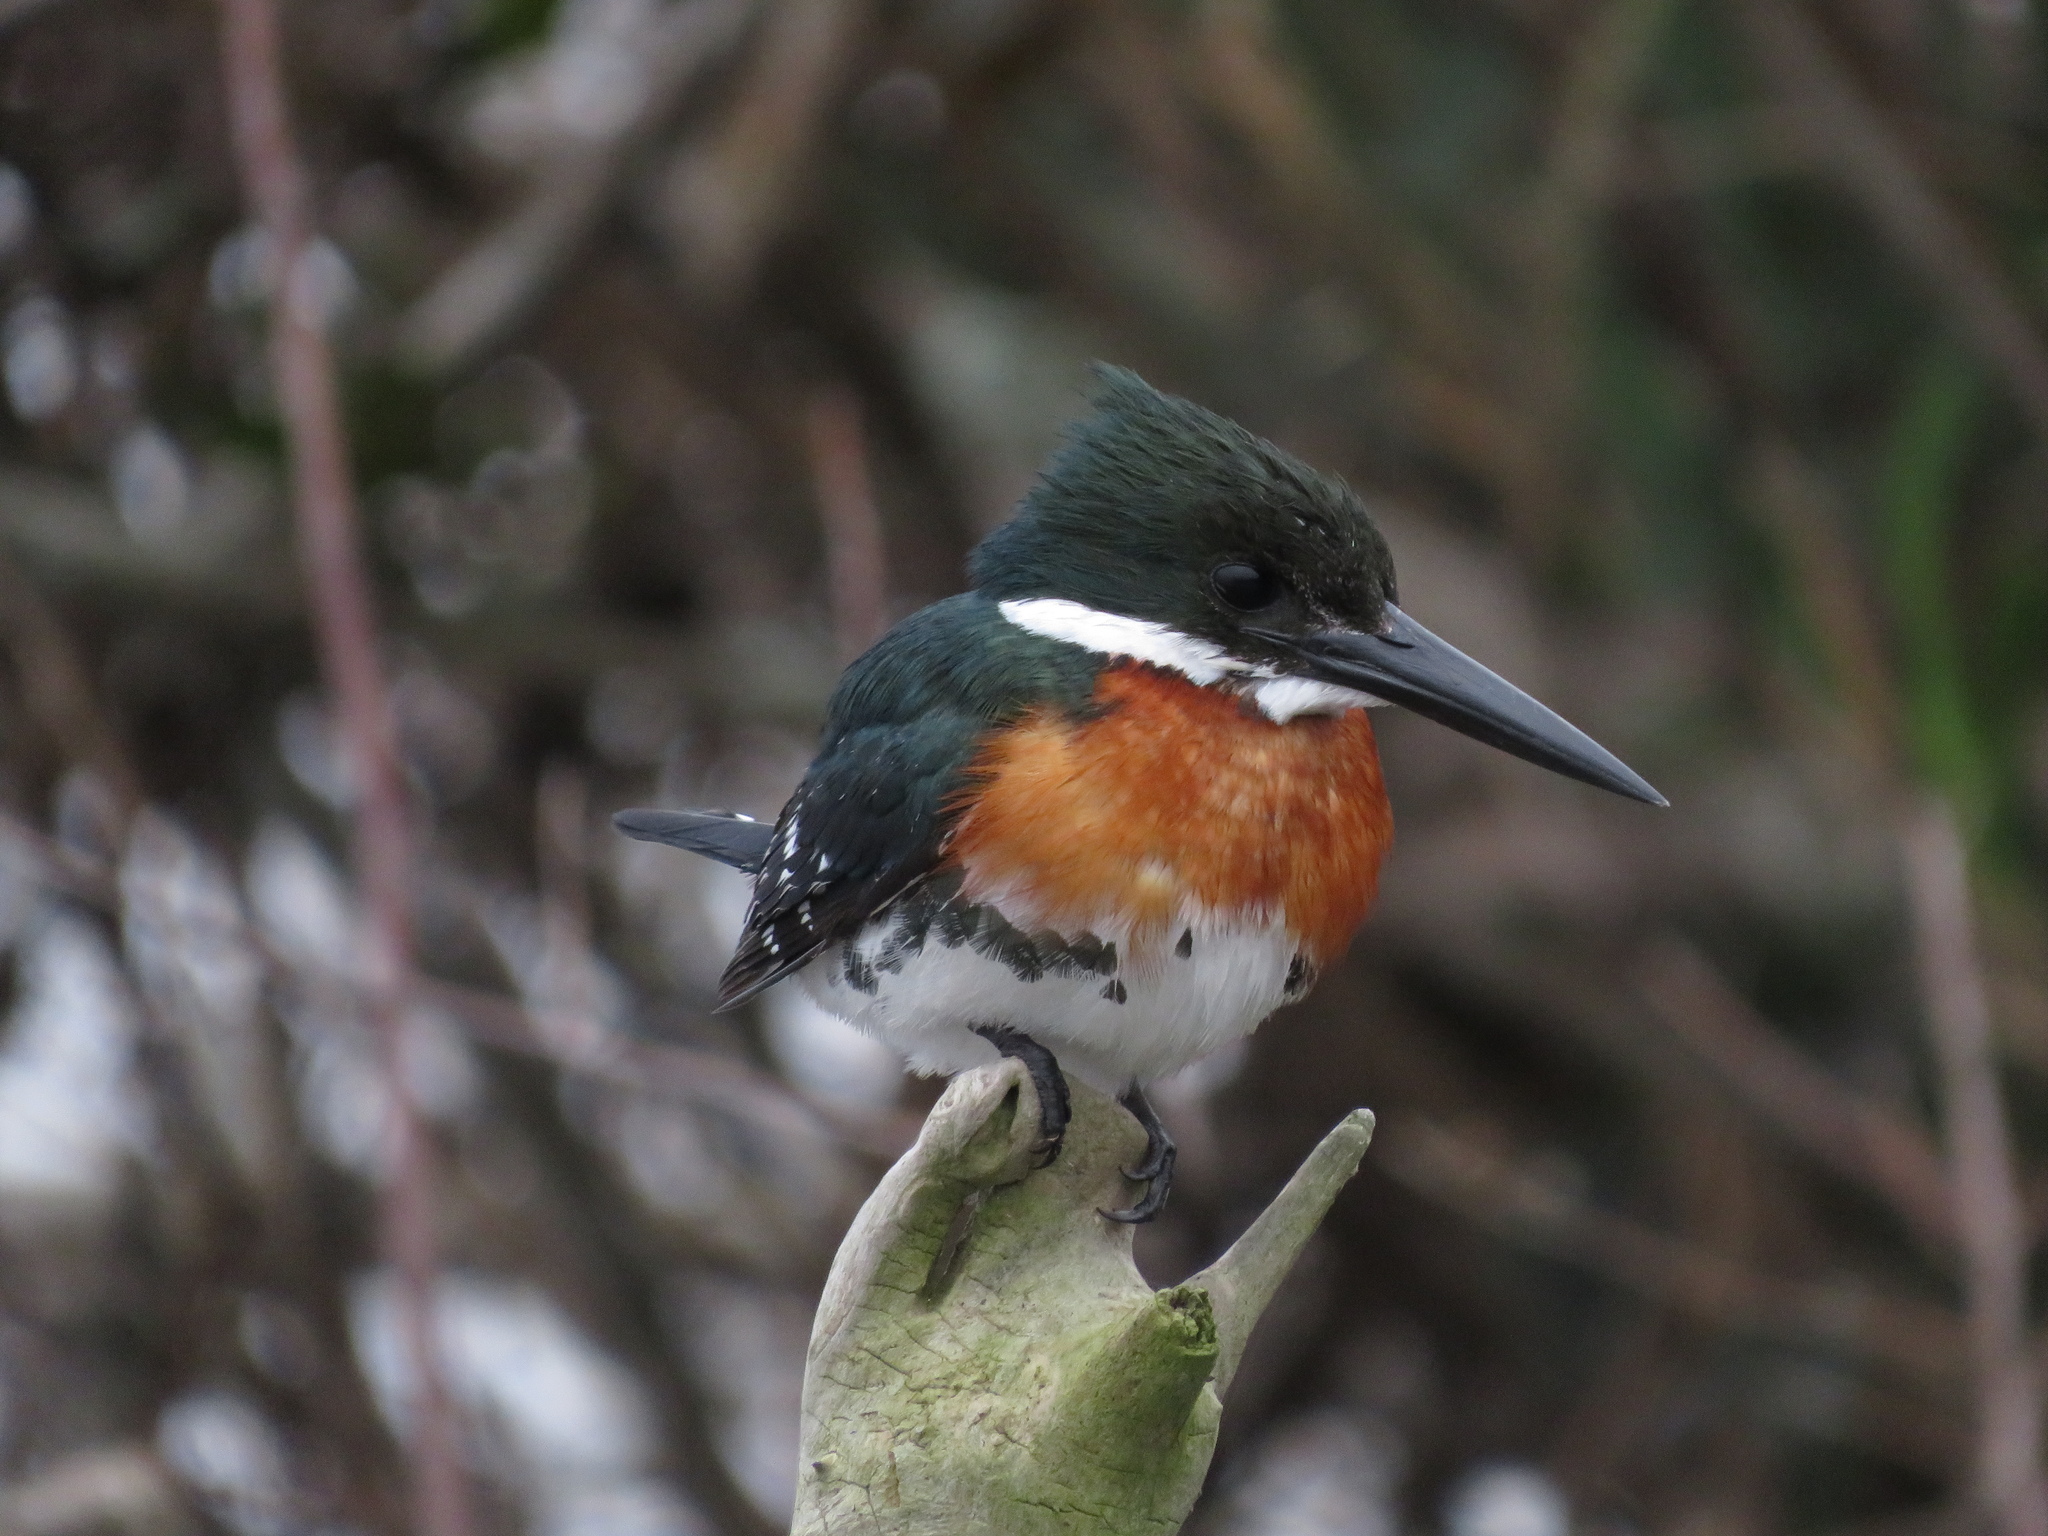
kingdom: Animalia
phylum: Chordata
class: Aves
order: Coraciiformes
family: Alcedinidae
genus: Chloroceryle
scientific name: Chloroceryle americana
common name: Green kingfisher
